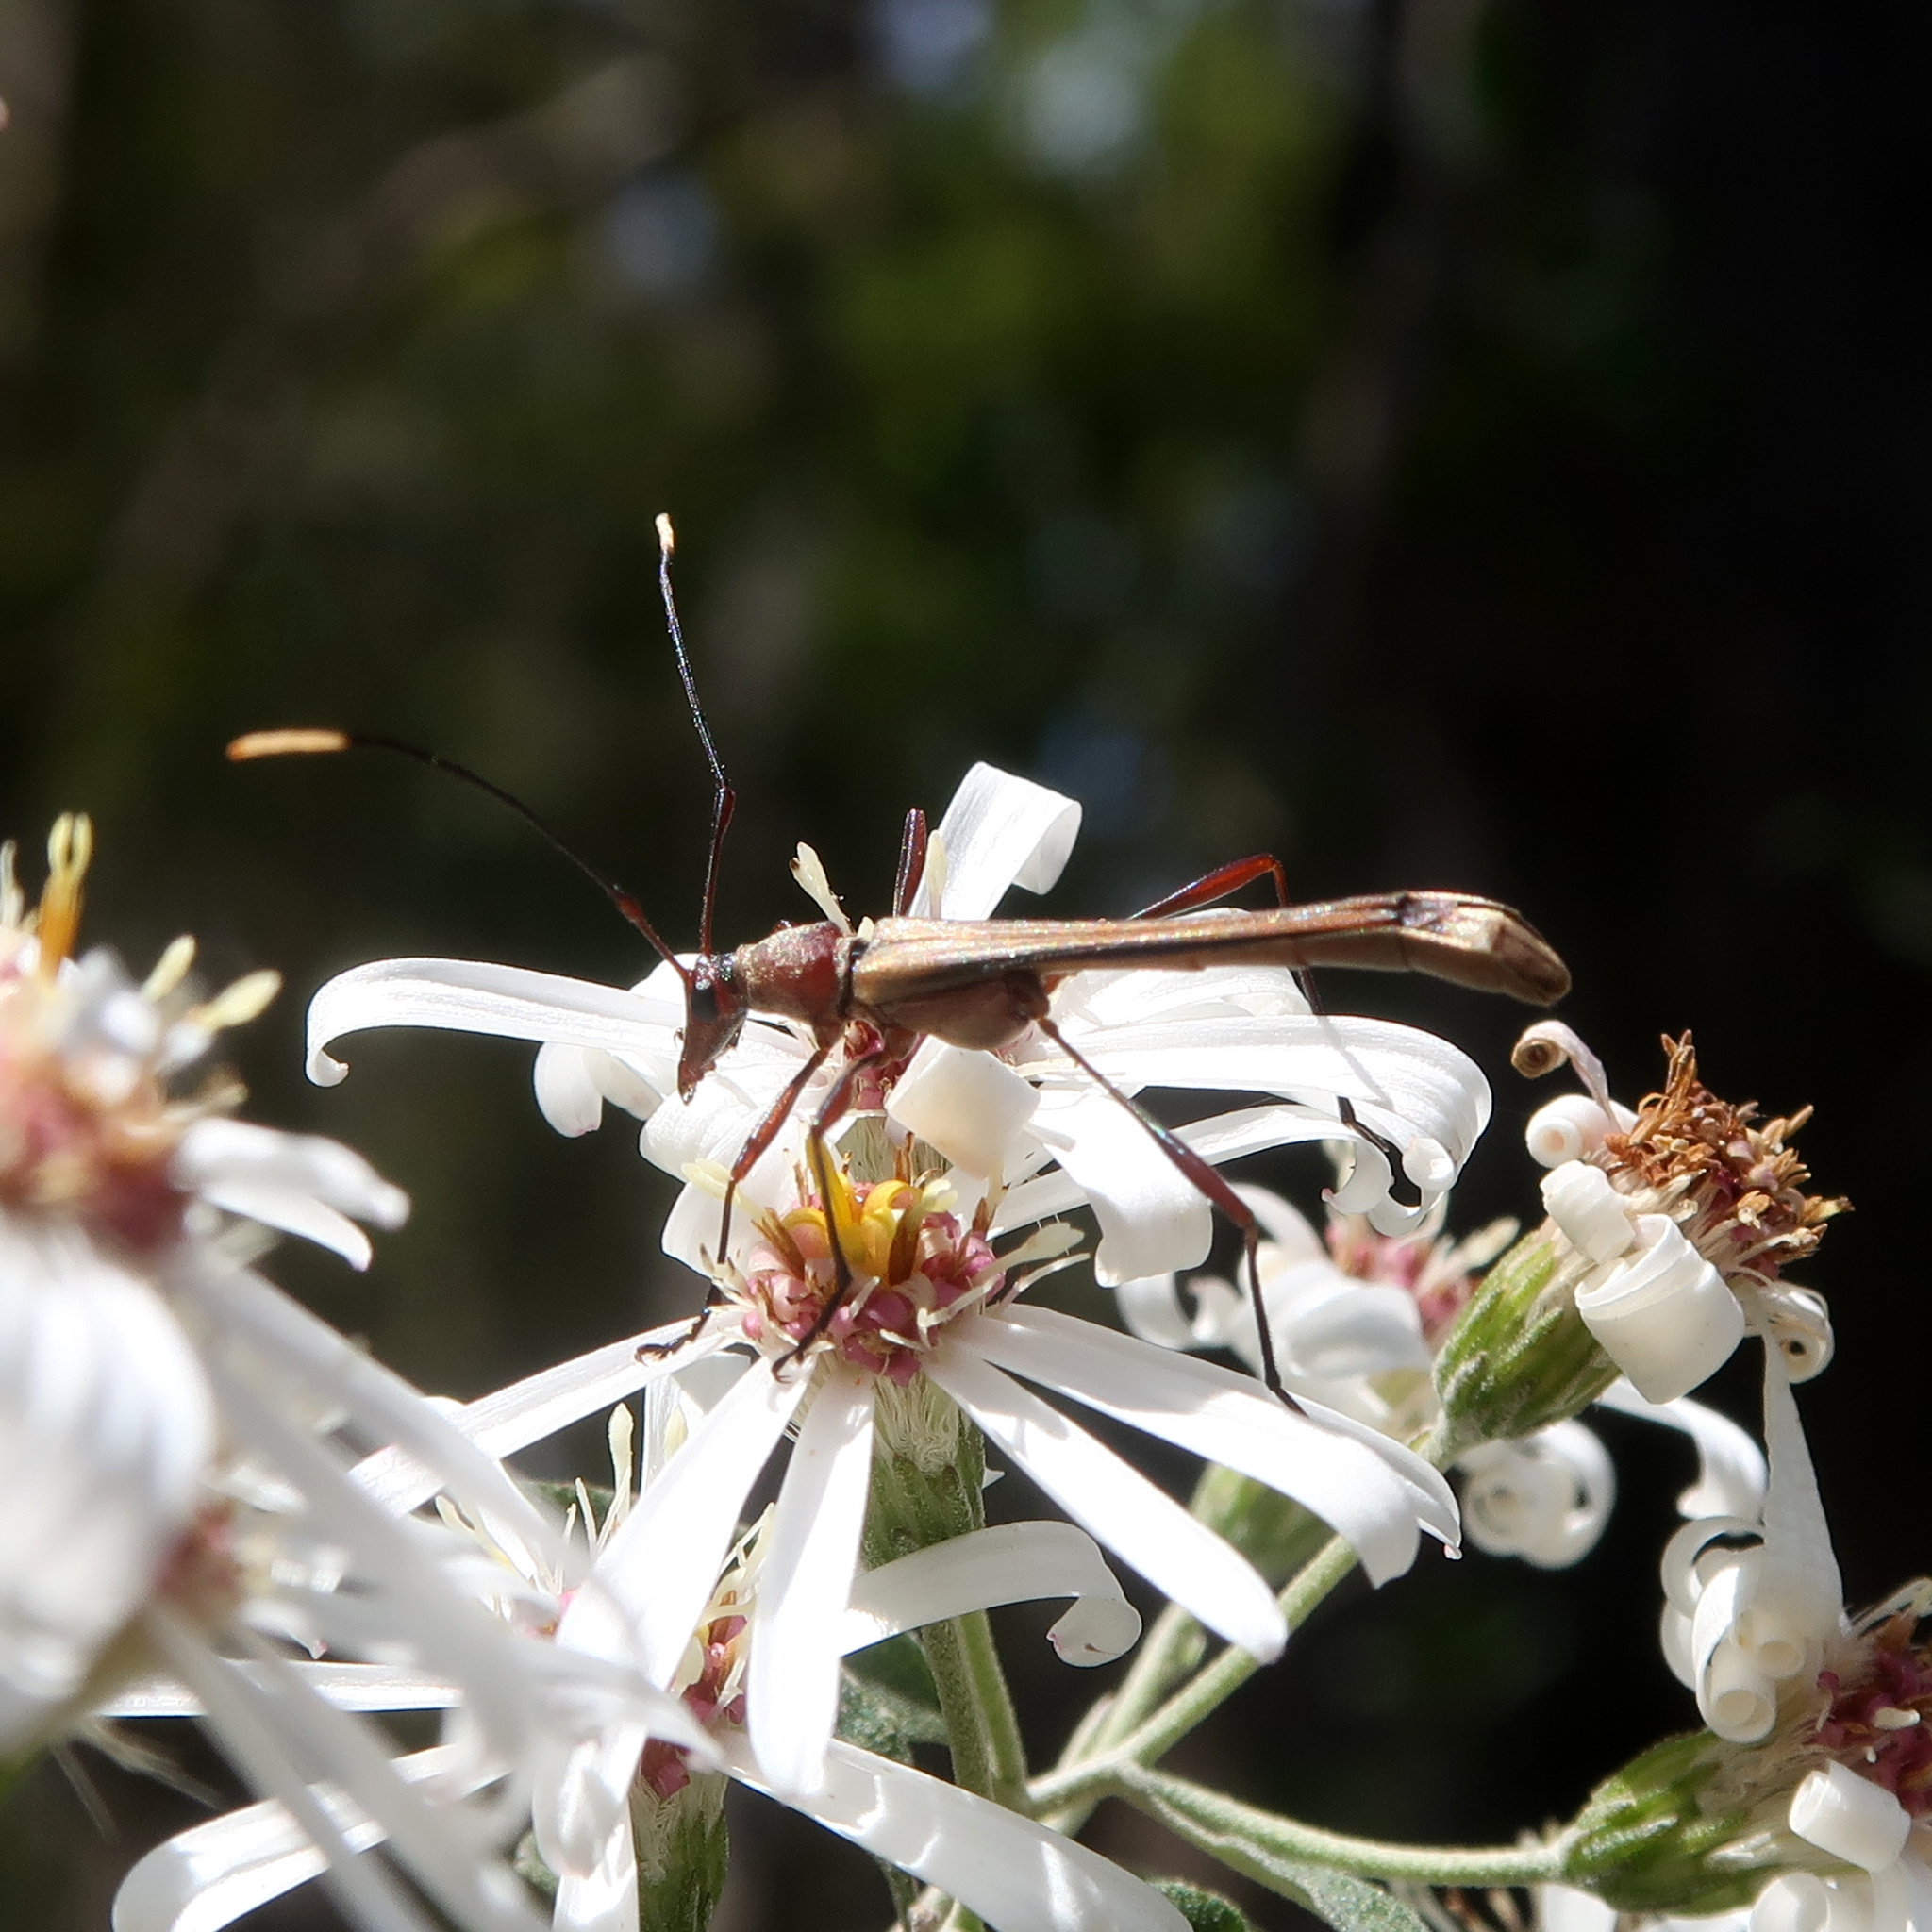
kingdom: Animalia
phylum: Arthropoda
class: Insecta
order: Coleoptera
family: Cerambycidae
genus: Enchoptera
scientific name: Enchoptera apicalis
